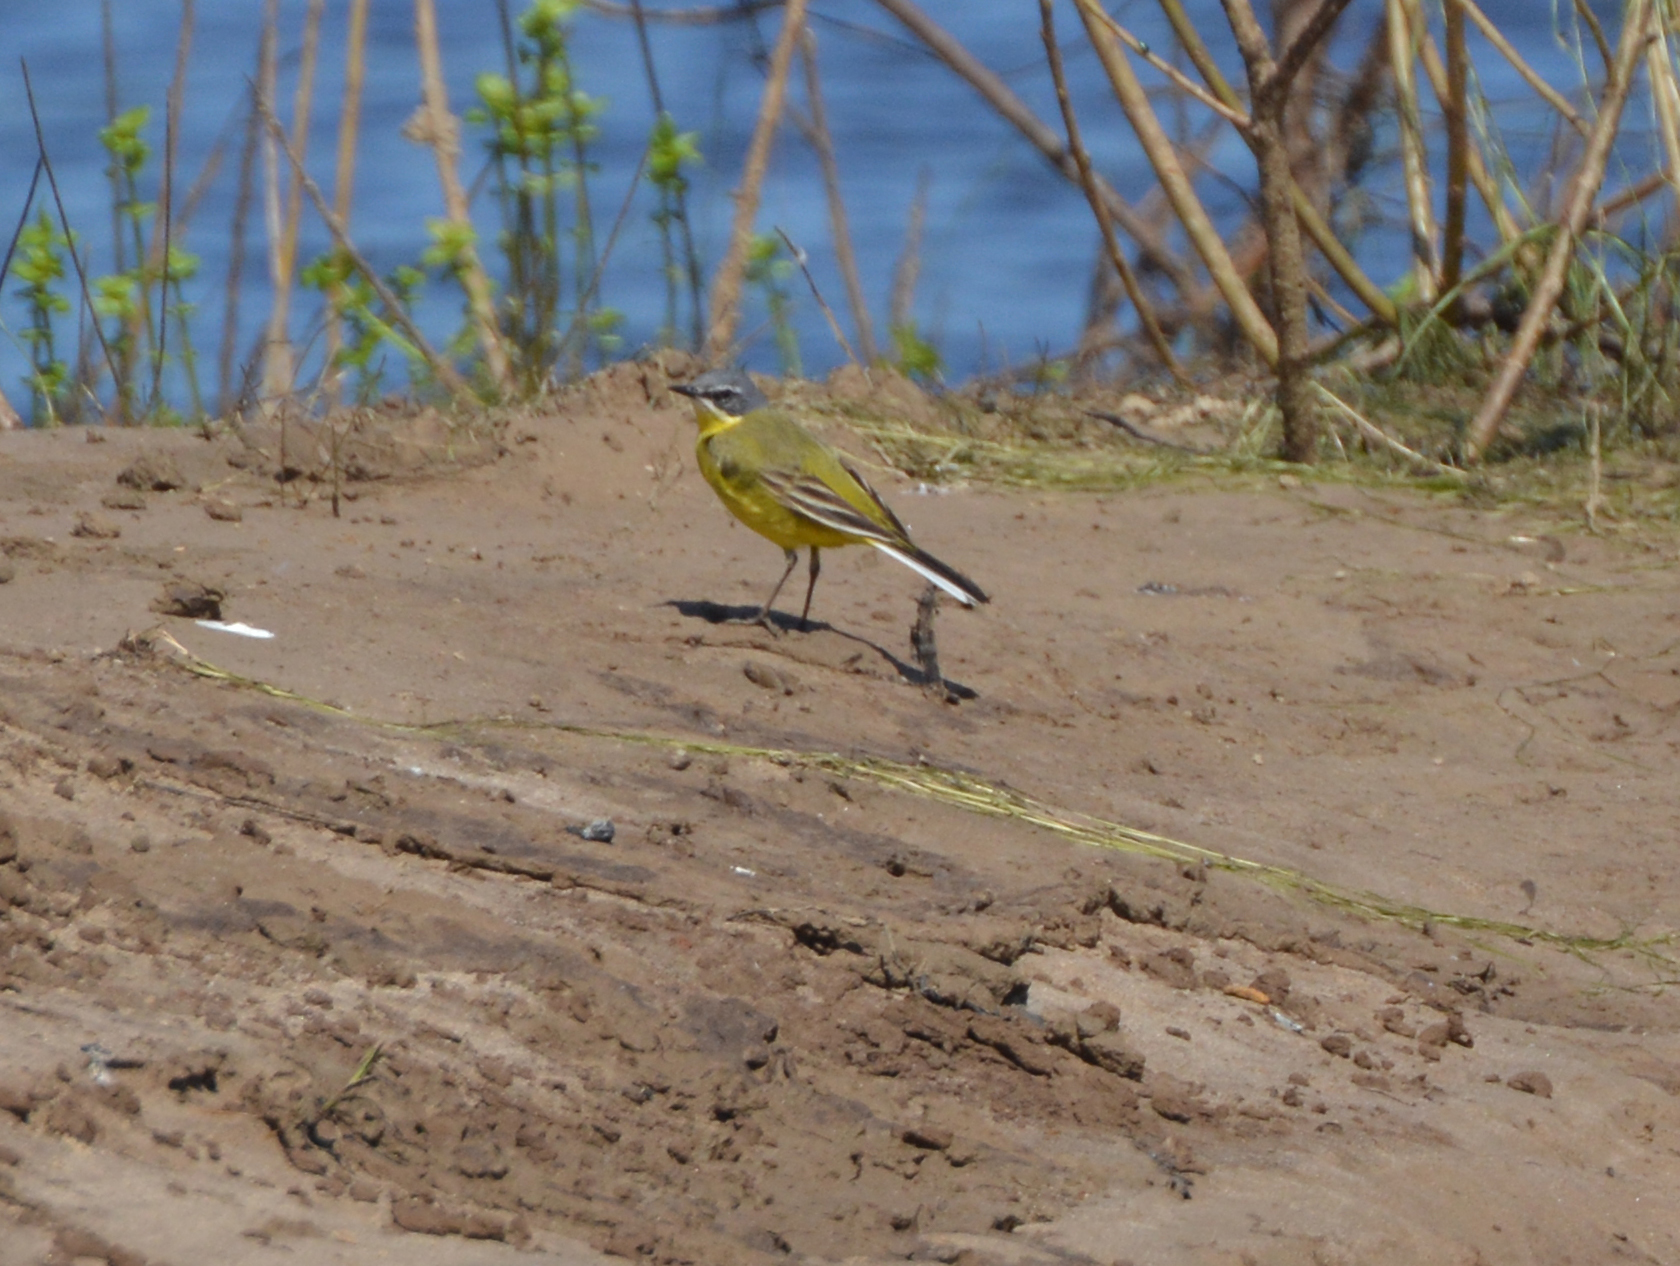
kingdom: Animalia
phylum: Chordata
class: Aves
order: Passeriformes
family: Motacillidae
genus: Motacilla
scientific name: Motacilla flava
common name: Western yellow wagtail
